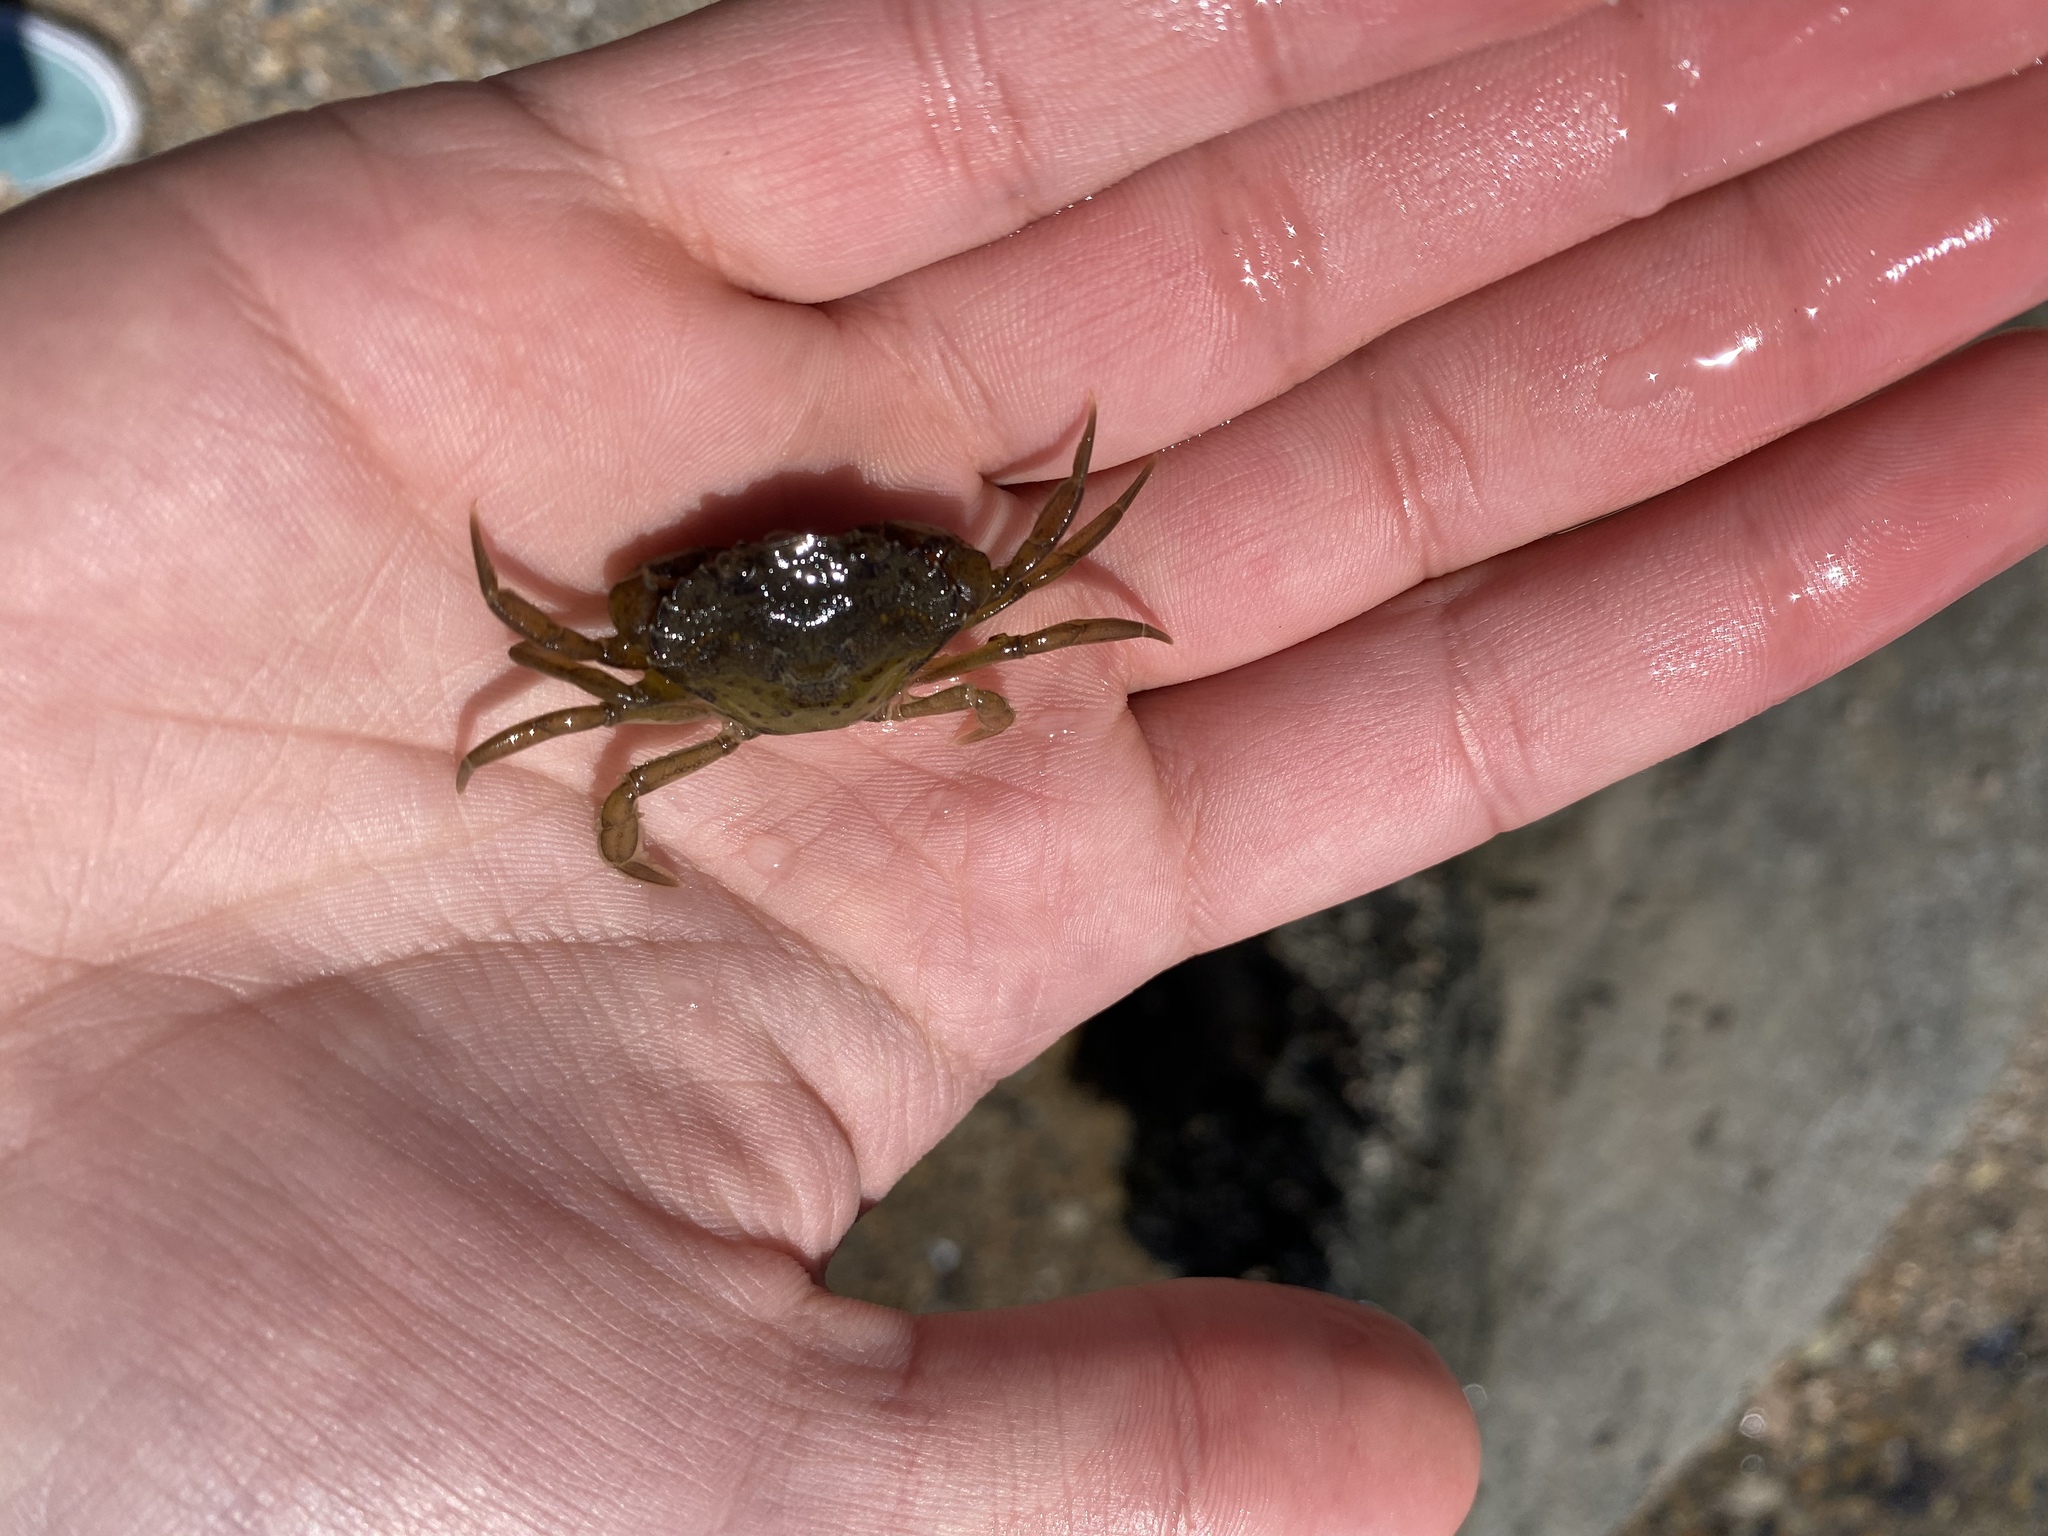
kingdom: Animalia
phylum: Arthropoda
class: Malacostraca
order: Decapoda
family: Carcinidae
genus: Carcinus
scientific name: Carcinus maenas
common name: European green crab
